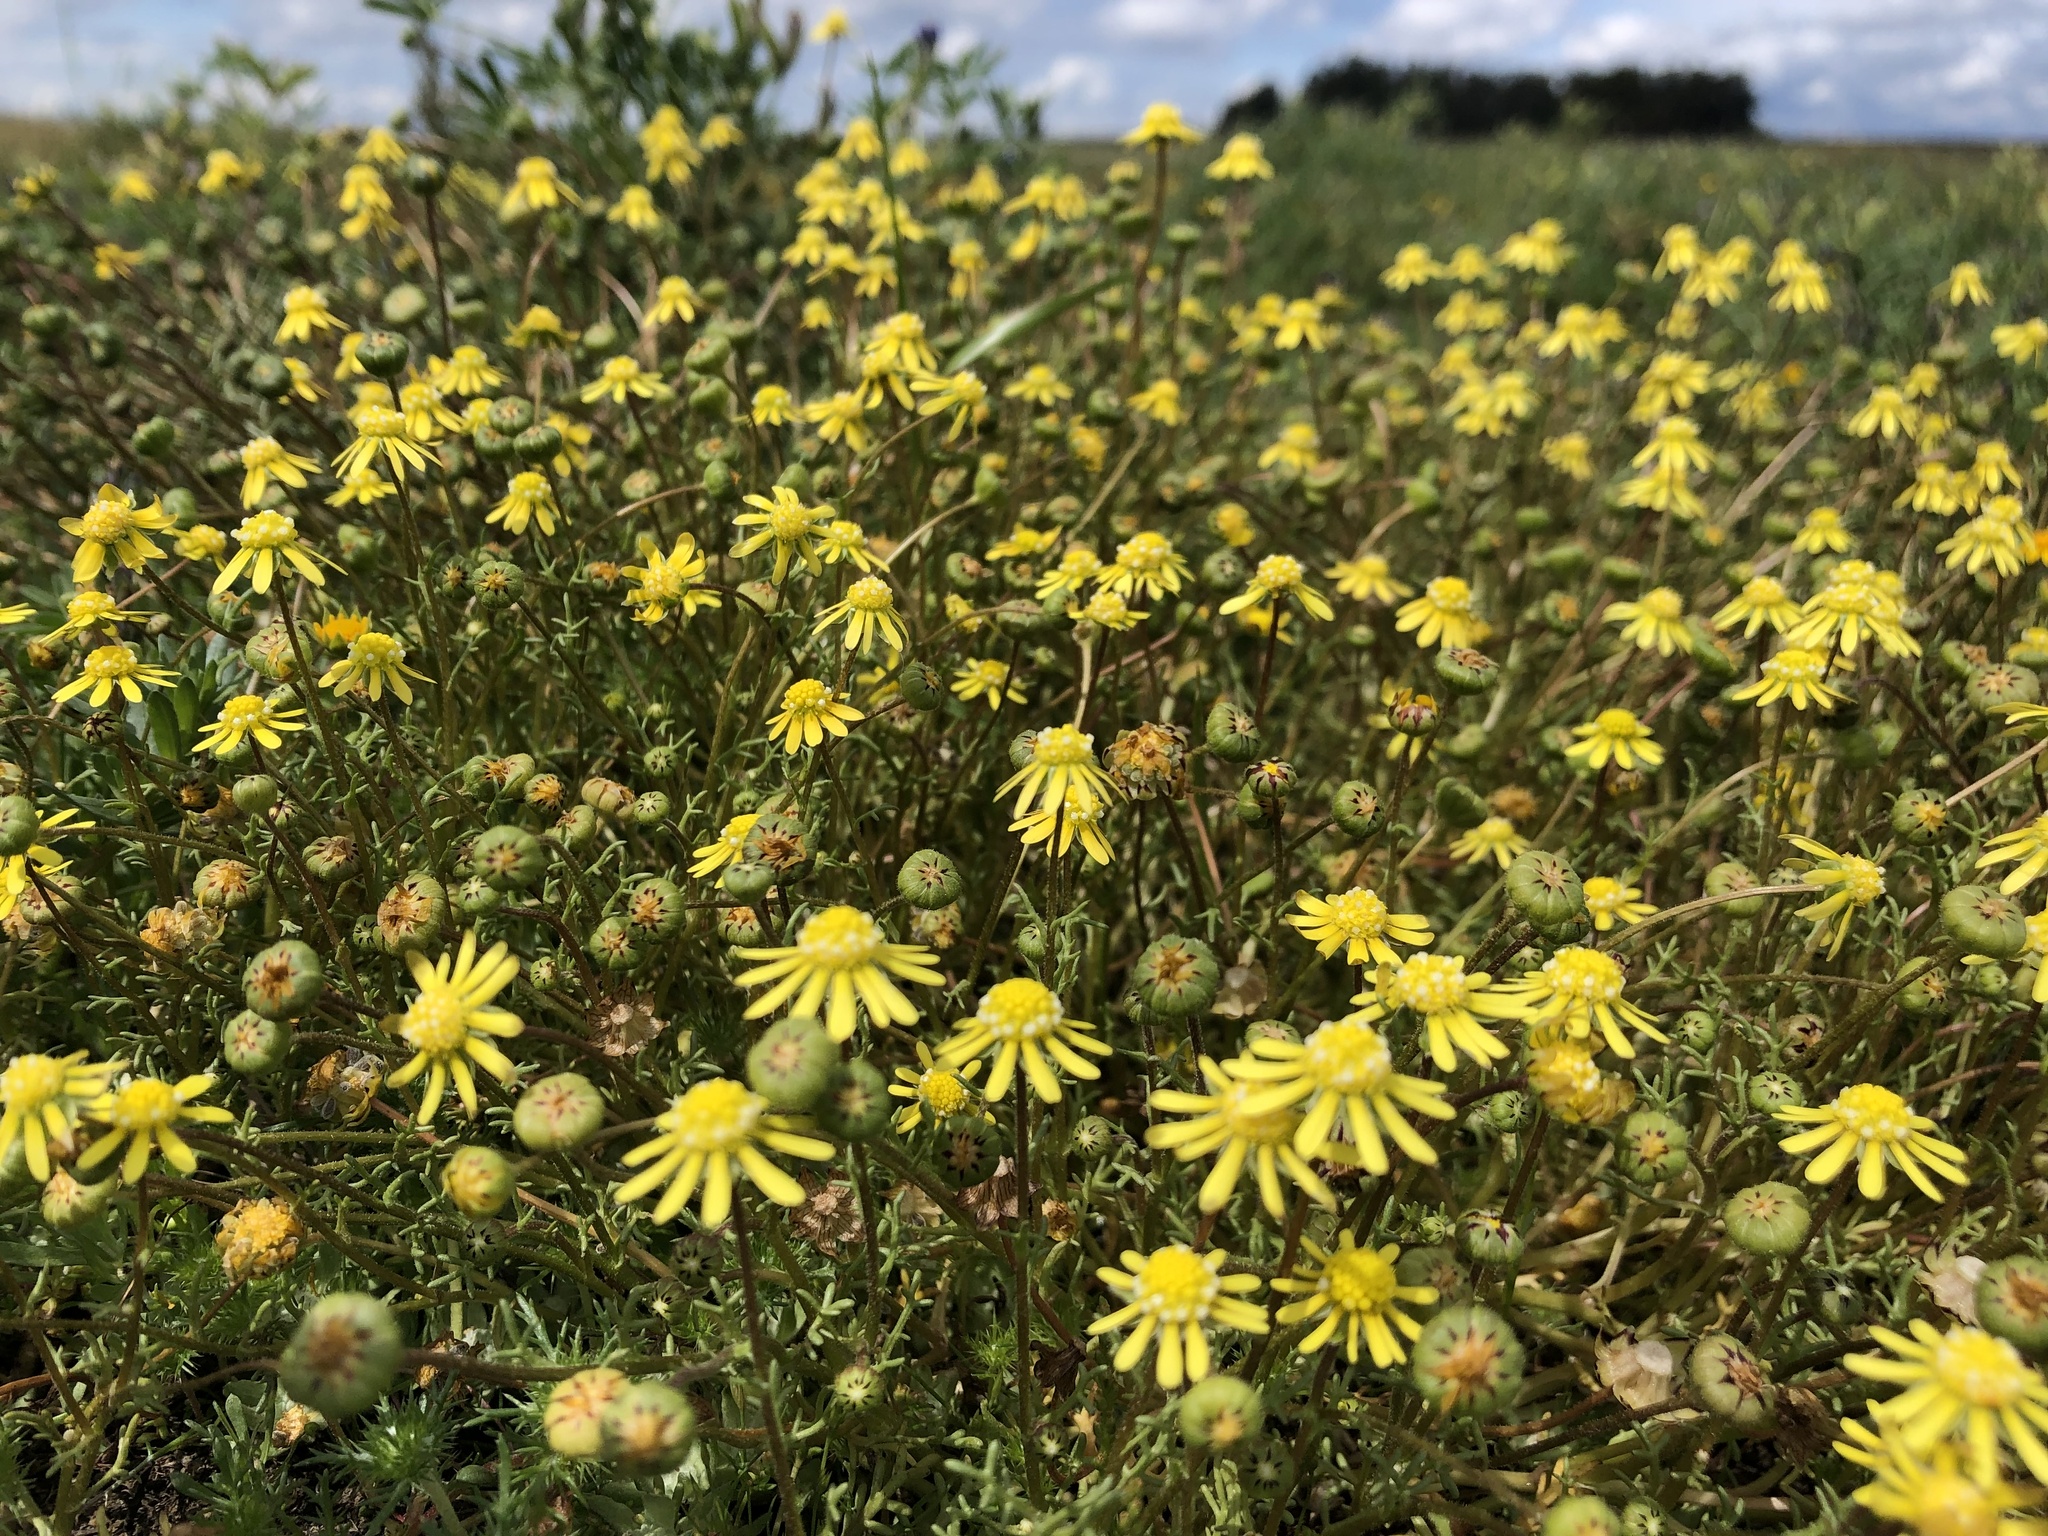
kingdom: Plantae
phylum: Tracheophyta
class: Magnoliopsida
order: Asterales
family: Asteraceae
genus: Blennosperma
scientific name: Blennosperma nanum
